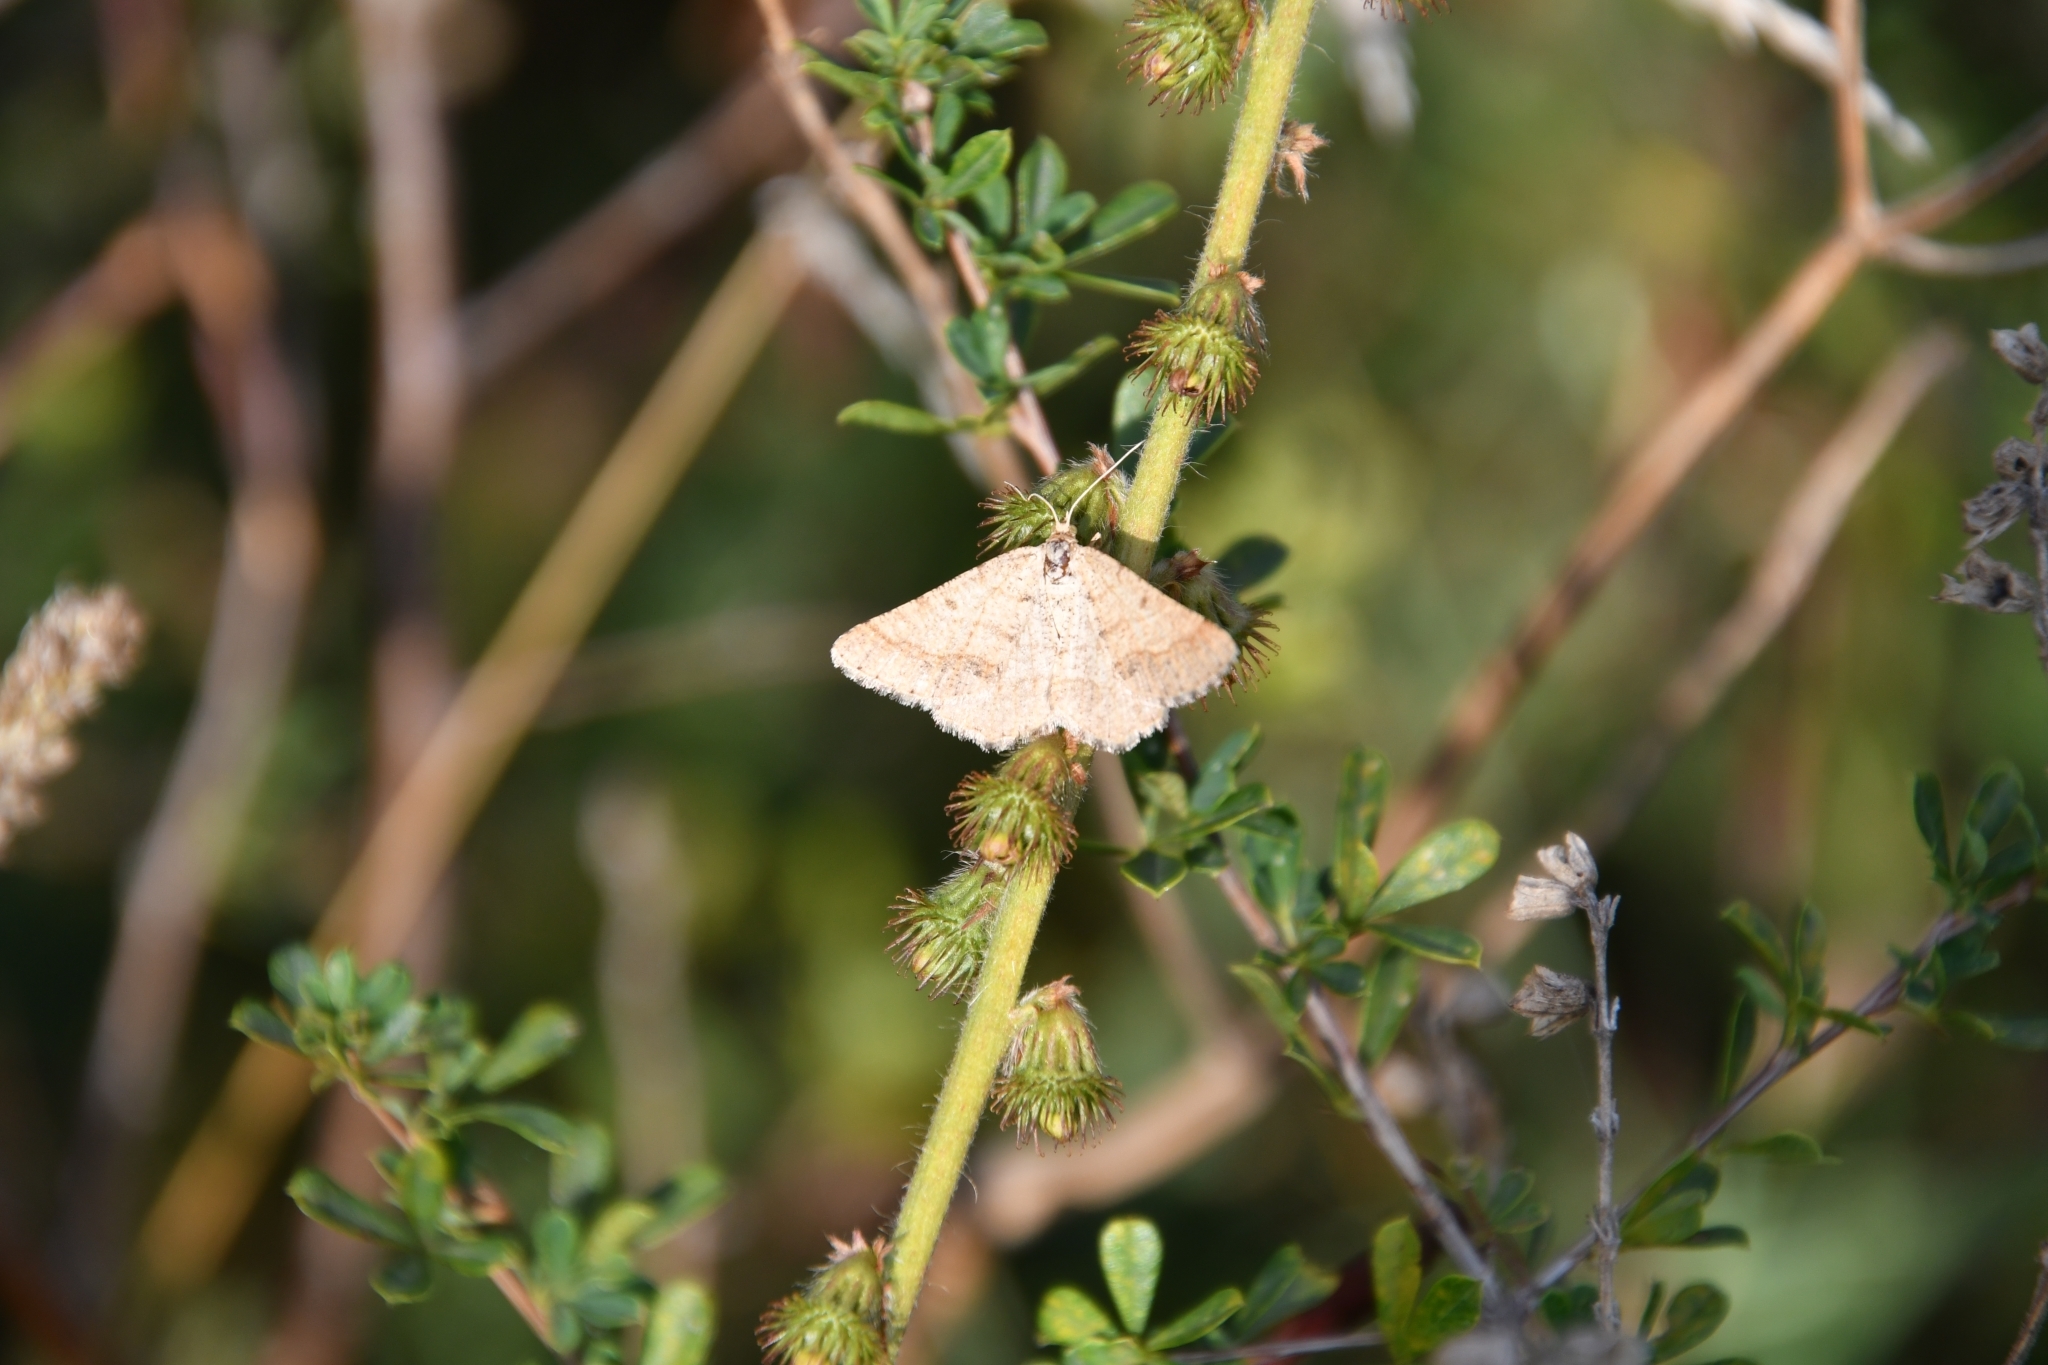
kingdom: Animalia
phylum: Arthropoda
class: Insecta
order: Lepidoptera
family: Geometridae
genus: Tephrina
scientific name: Tephrina murinaria
